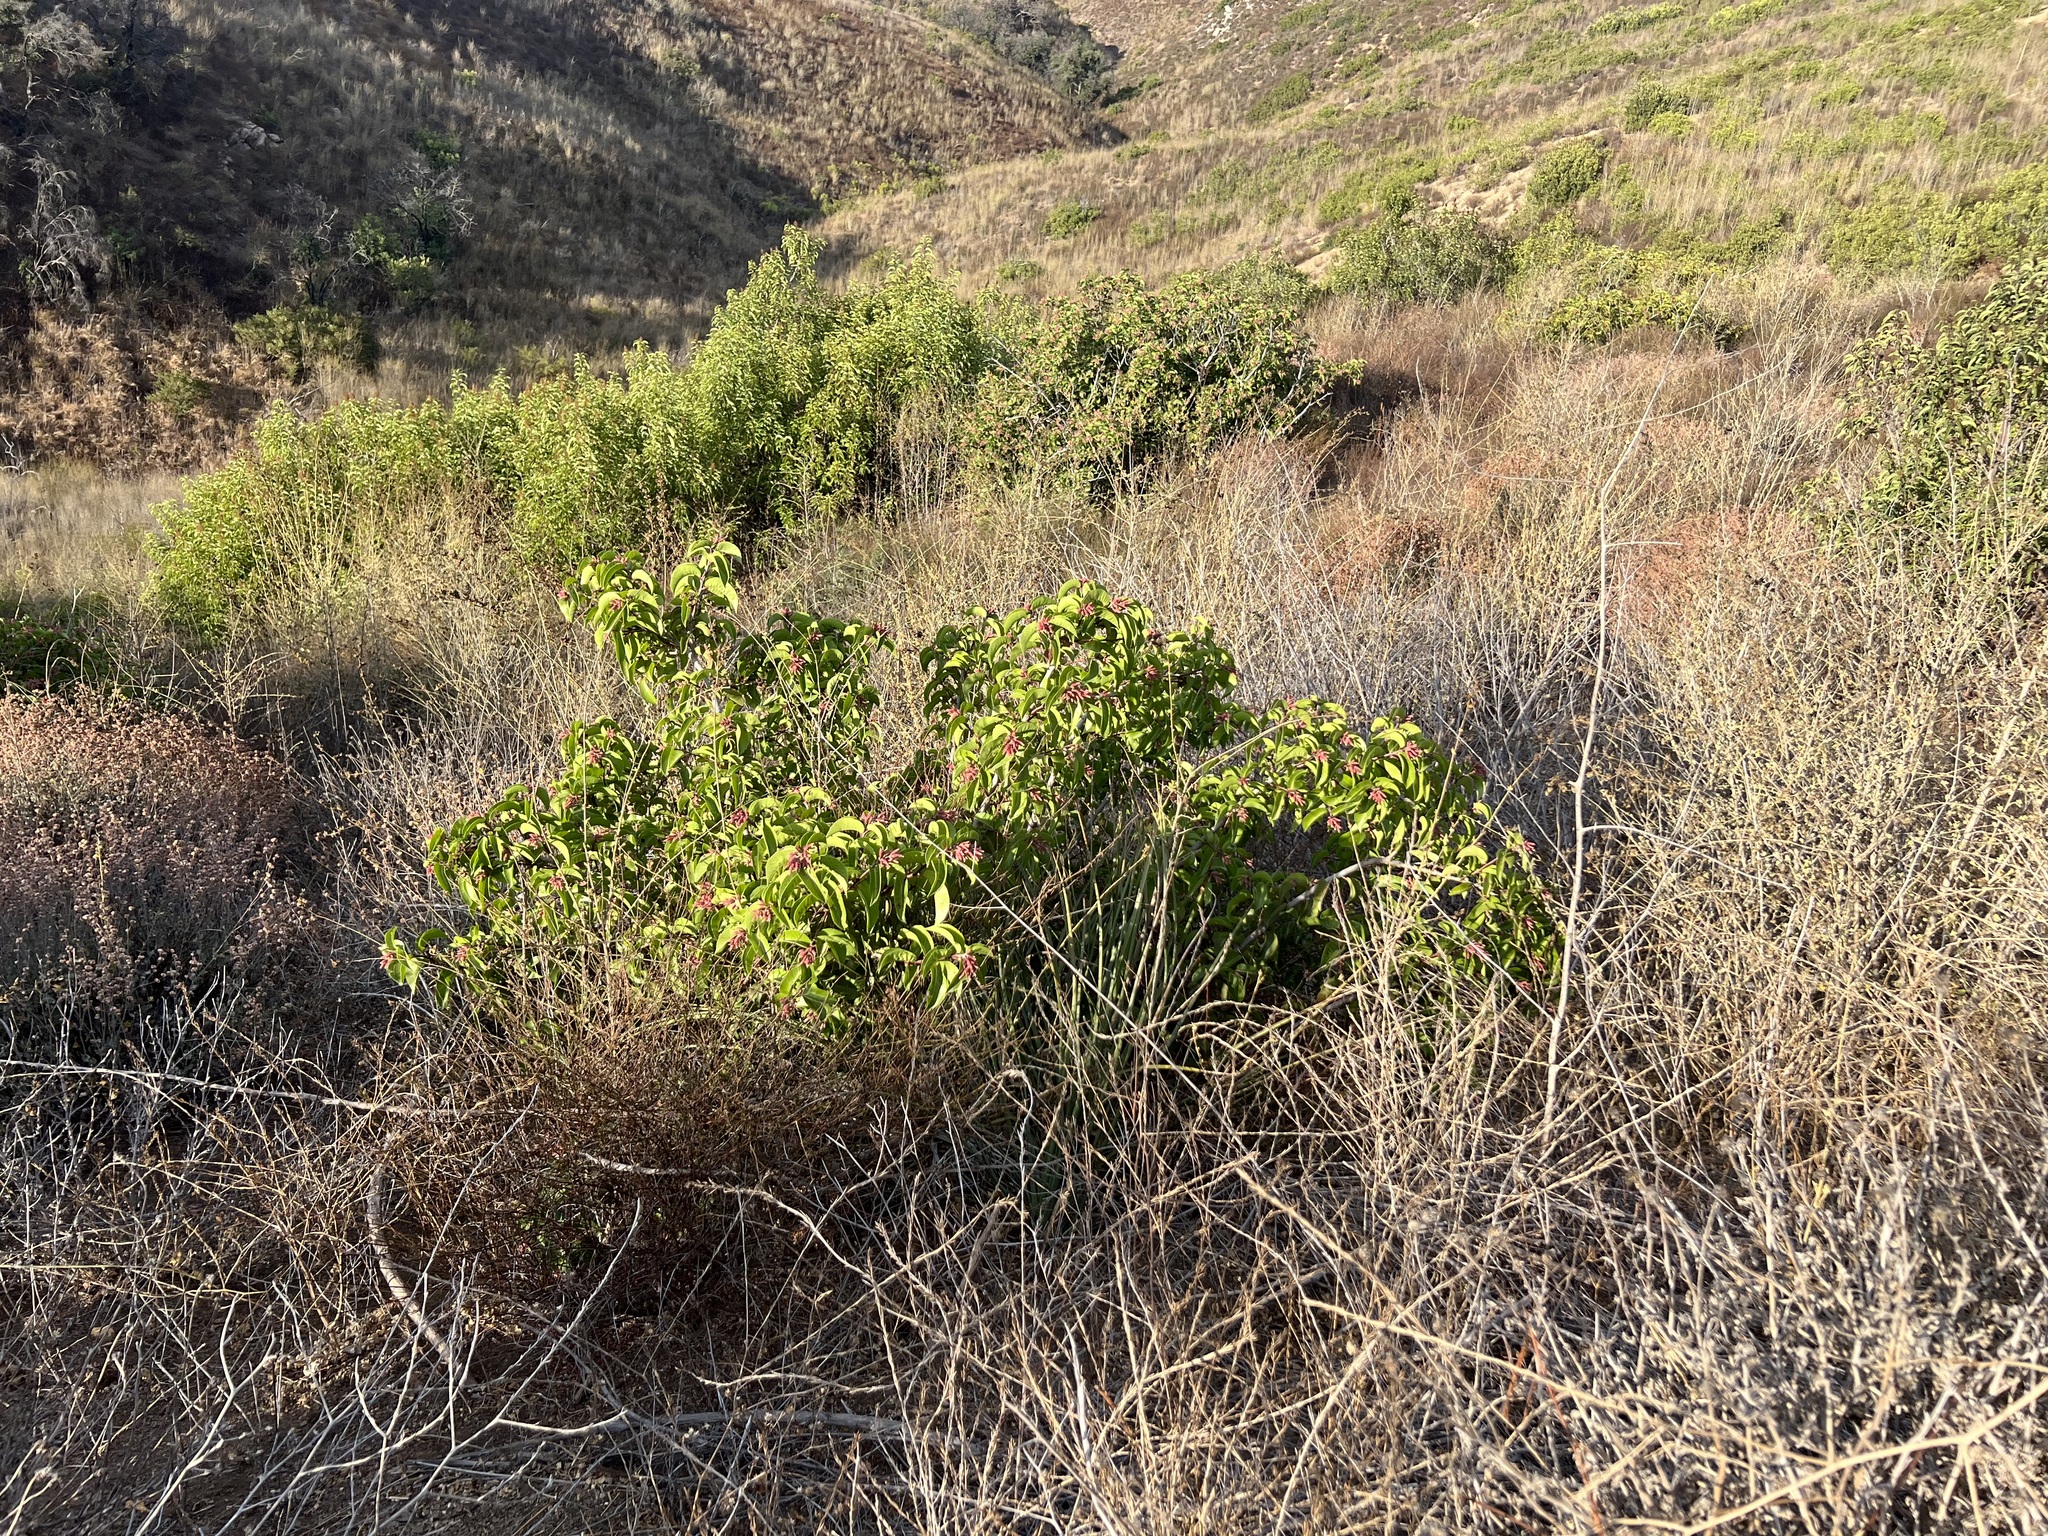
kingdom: Plantae
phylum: Tracheophyta
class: Magnoliopsida
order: Sapindales
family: Anacardiaceae
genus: Rhus
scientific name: Rhus ovata
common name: Sugar sumac
